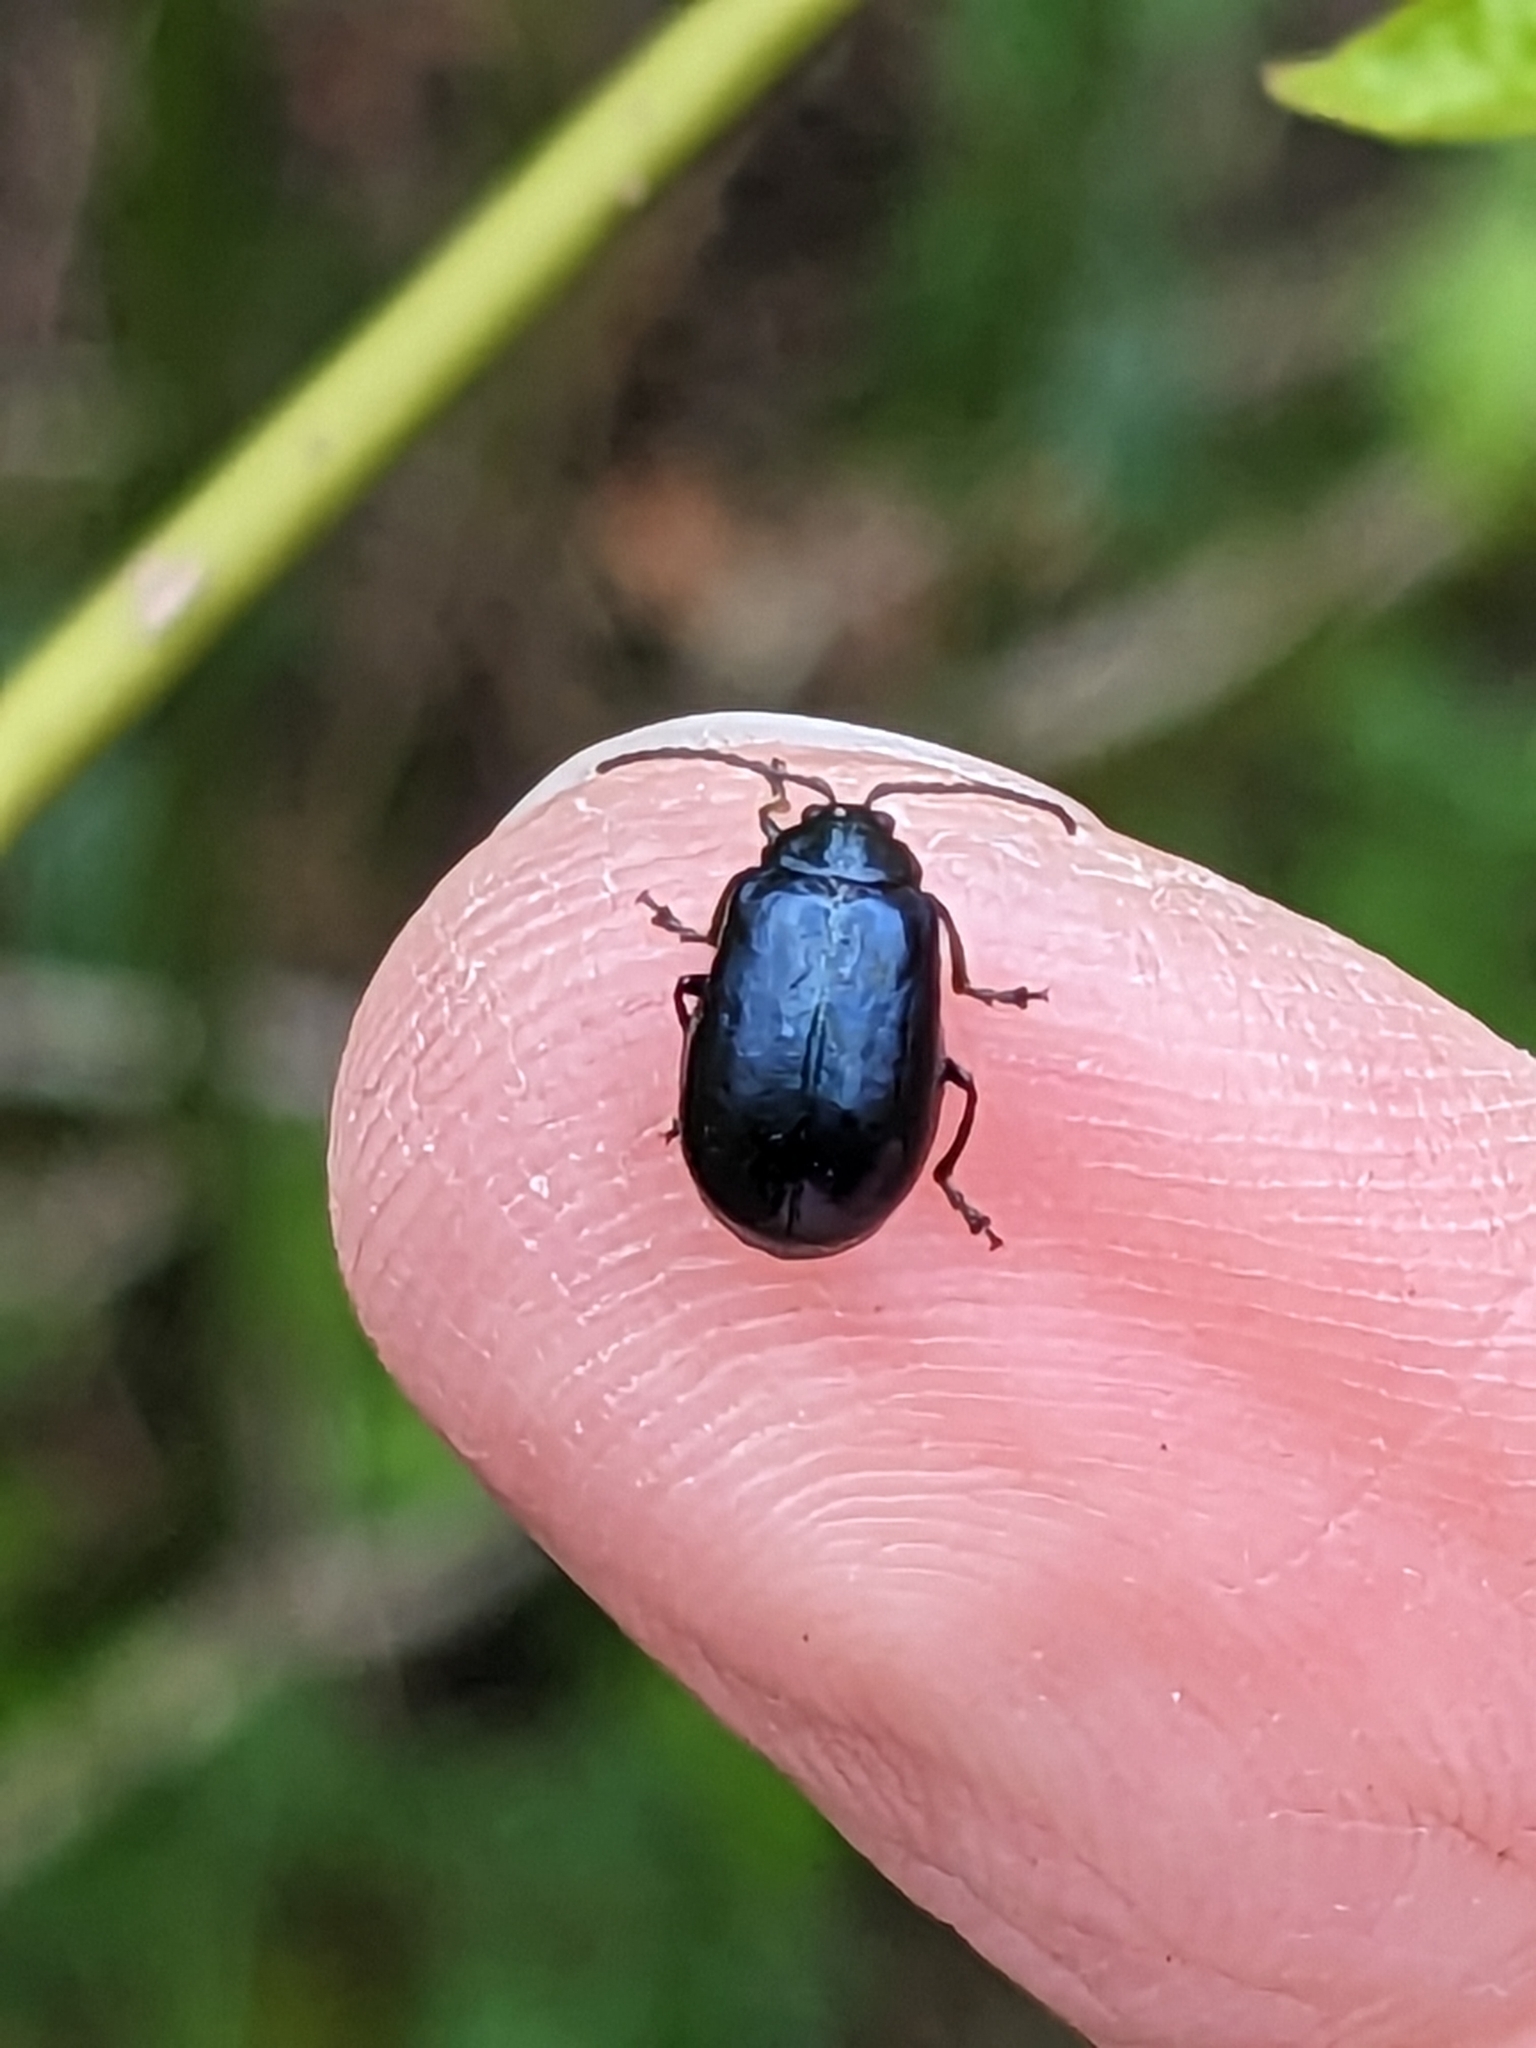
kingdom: Animalia
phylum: Arthropoda
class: Insecta
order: Coleoptera
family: Chrysomelidae
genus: Agelastica
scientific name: Agelastica alni
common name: Alder leaf beetle
